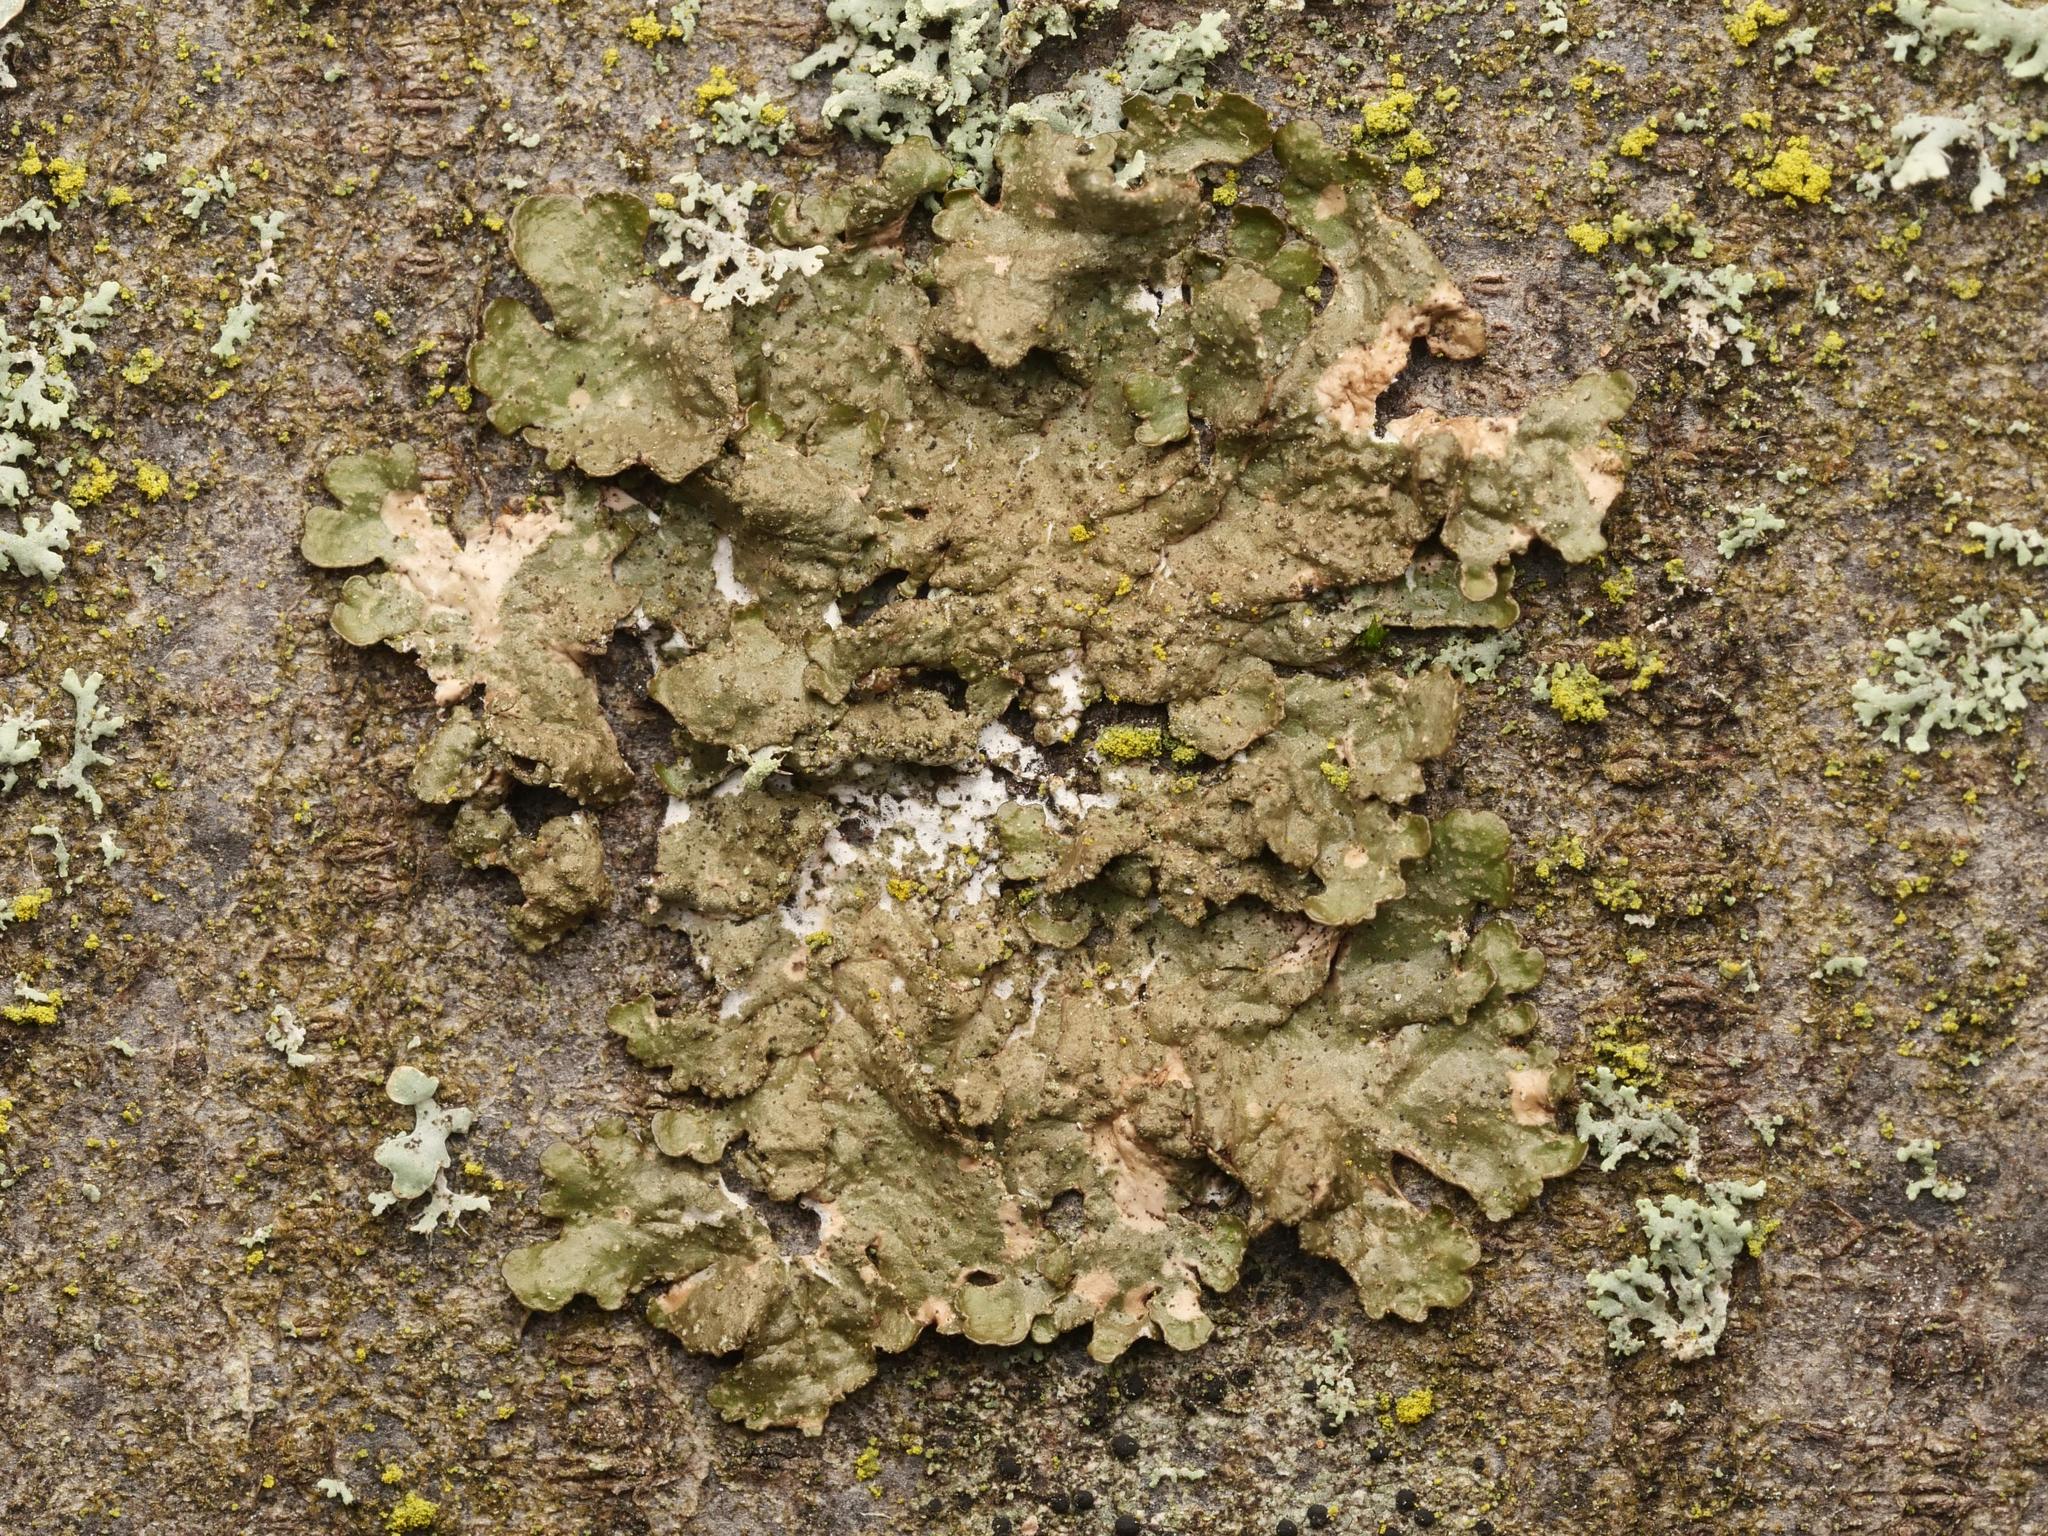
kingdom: Fungi
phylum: Ascomycota
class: Lecanoromycetes
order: Lecanorales
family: Parmeliaceae
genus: Melanelixia
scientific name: Melanelixia subaurifera
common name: Abraded camouflage lichen
